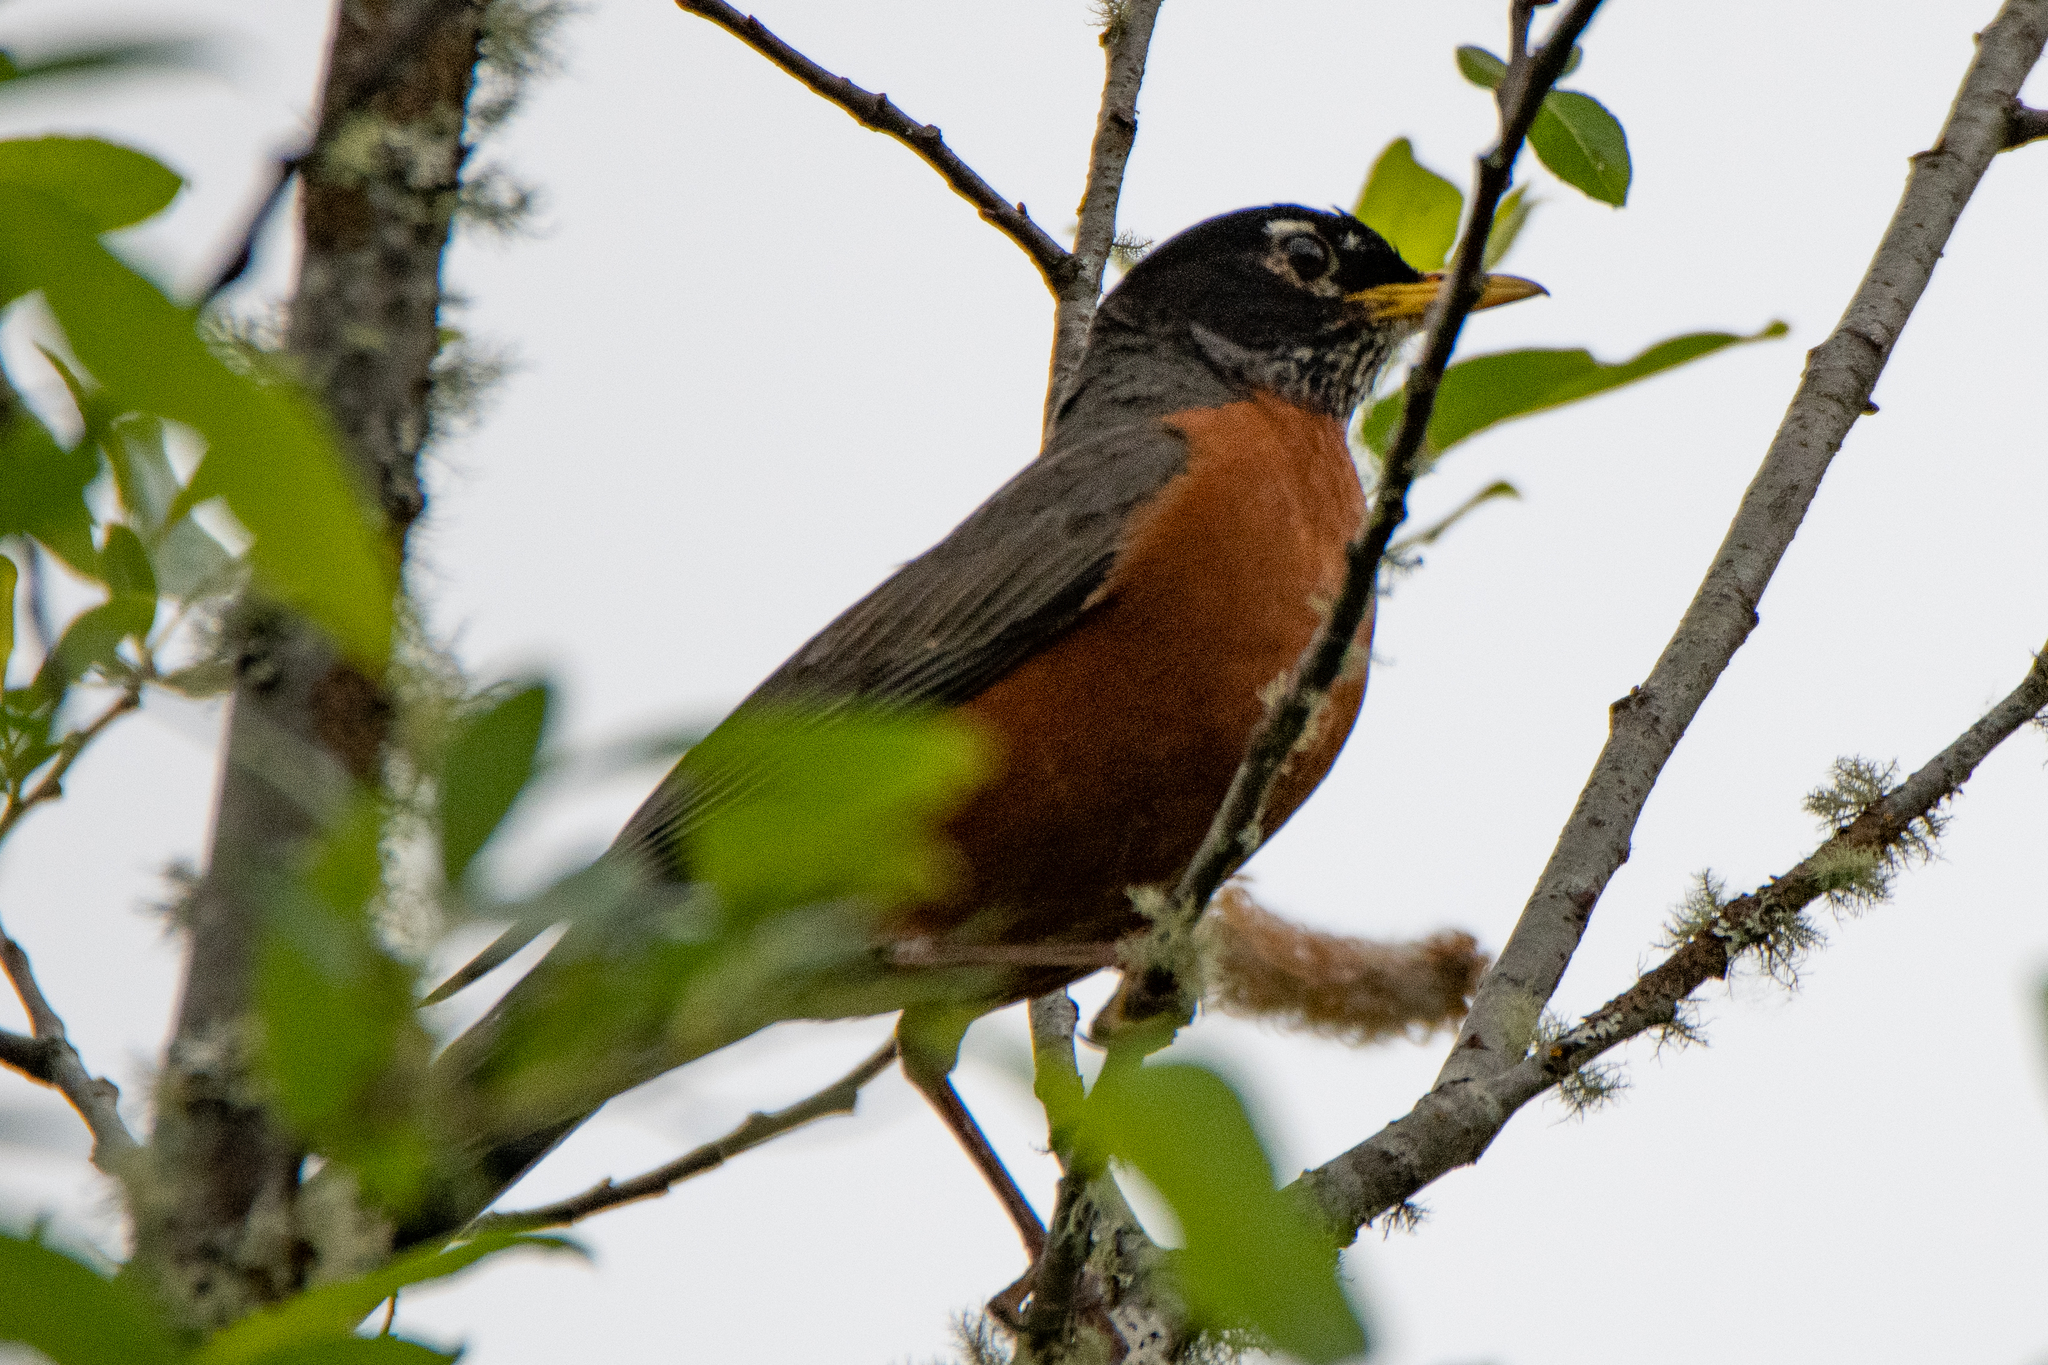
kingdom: Animalia
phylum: Chordata
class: Aves
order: Passeriformes
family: Turdidae
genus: Turdus
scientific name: Turdus migratorius
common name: American robin
